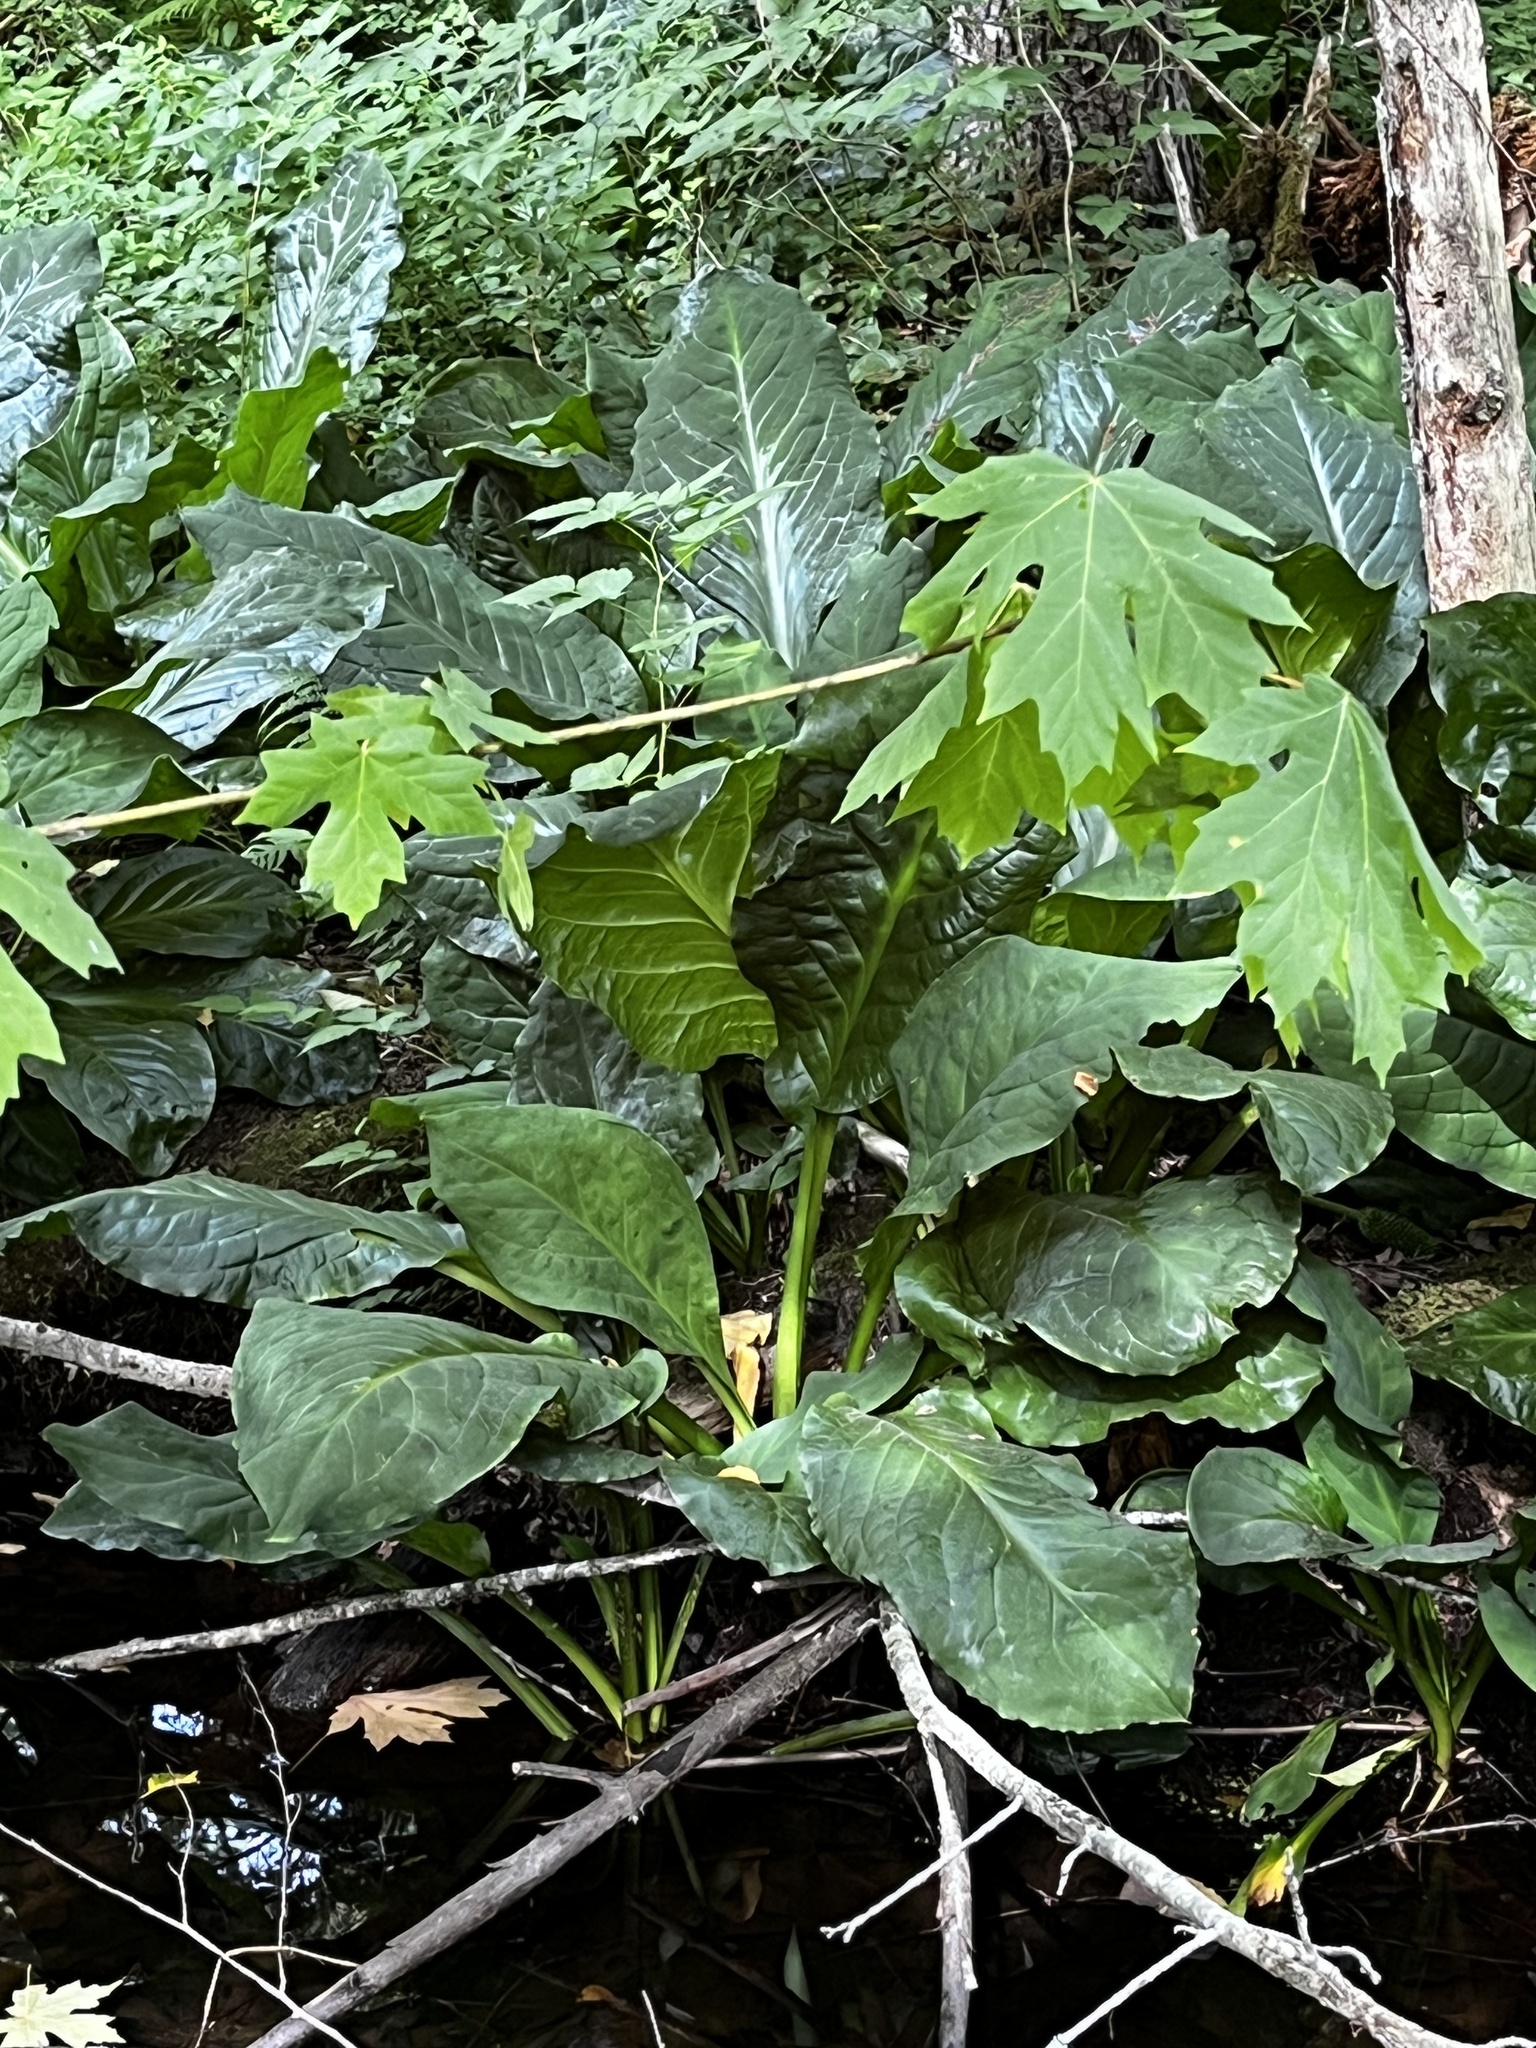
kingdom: Plantae
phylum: Tracheophyta
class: Liliopsida
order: Alismatales
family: Araceae
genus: Lysichiton
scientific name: Lysichiton americanus
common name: American skunk cabbage
